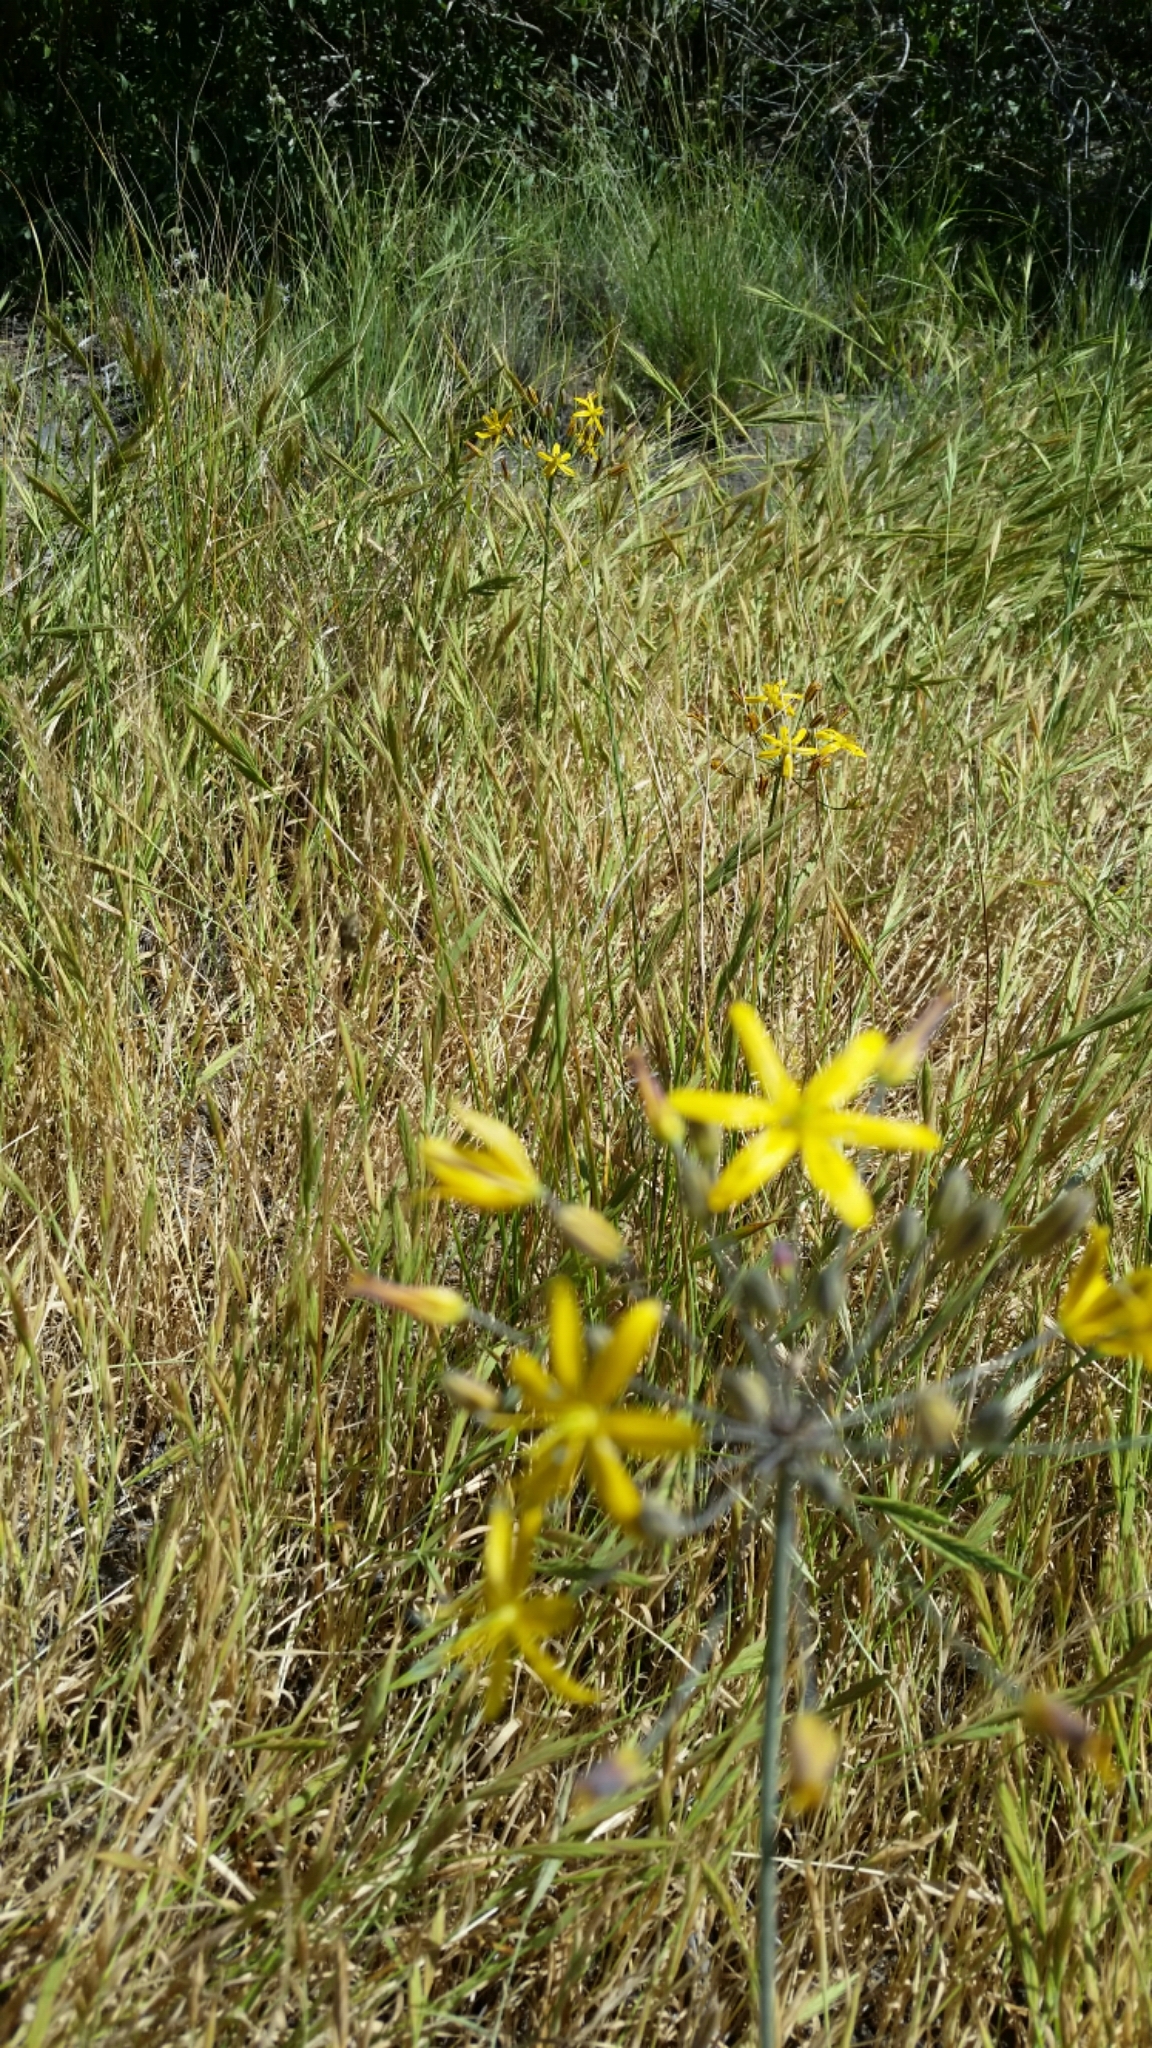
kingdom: Plantae
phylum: Tracheophyta
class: Liliopsida
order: Asparagales
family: Asparagaceae
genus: Bloomeria
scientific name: Bloomeria crocea
